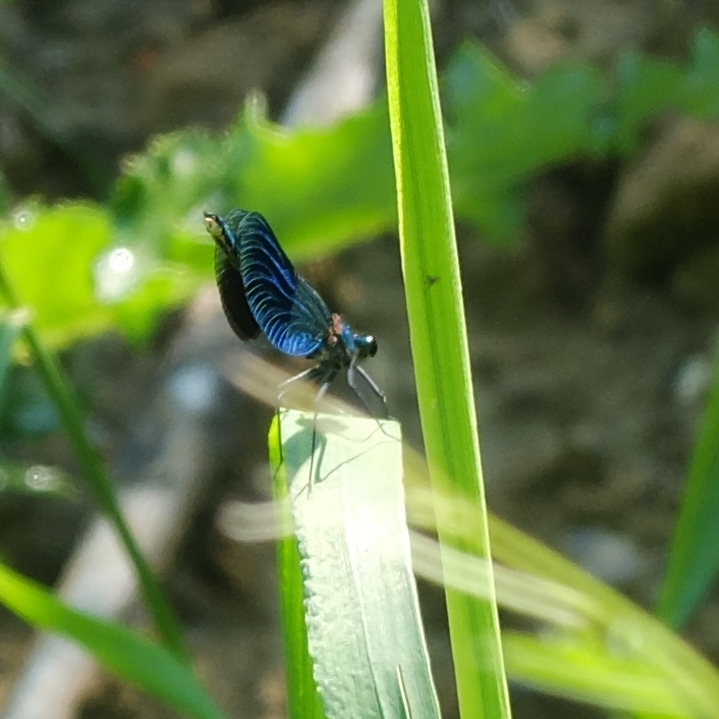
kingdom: Animalia
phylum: Arthropoda
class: Insecta
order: Odonata
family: Calopterygidae
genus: Calopteryx
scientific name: Calopteryx splendens
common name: Banded demoiselle
